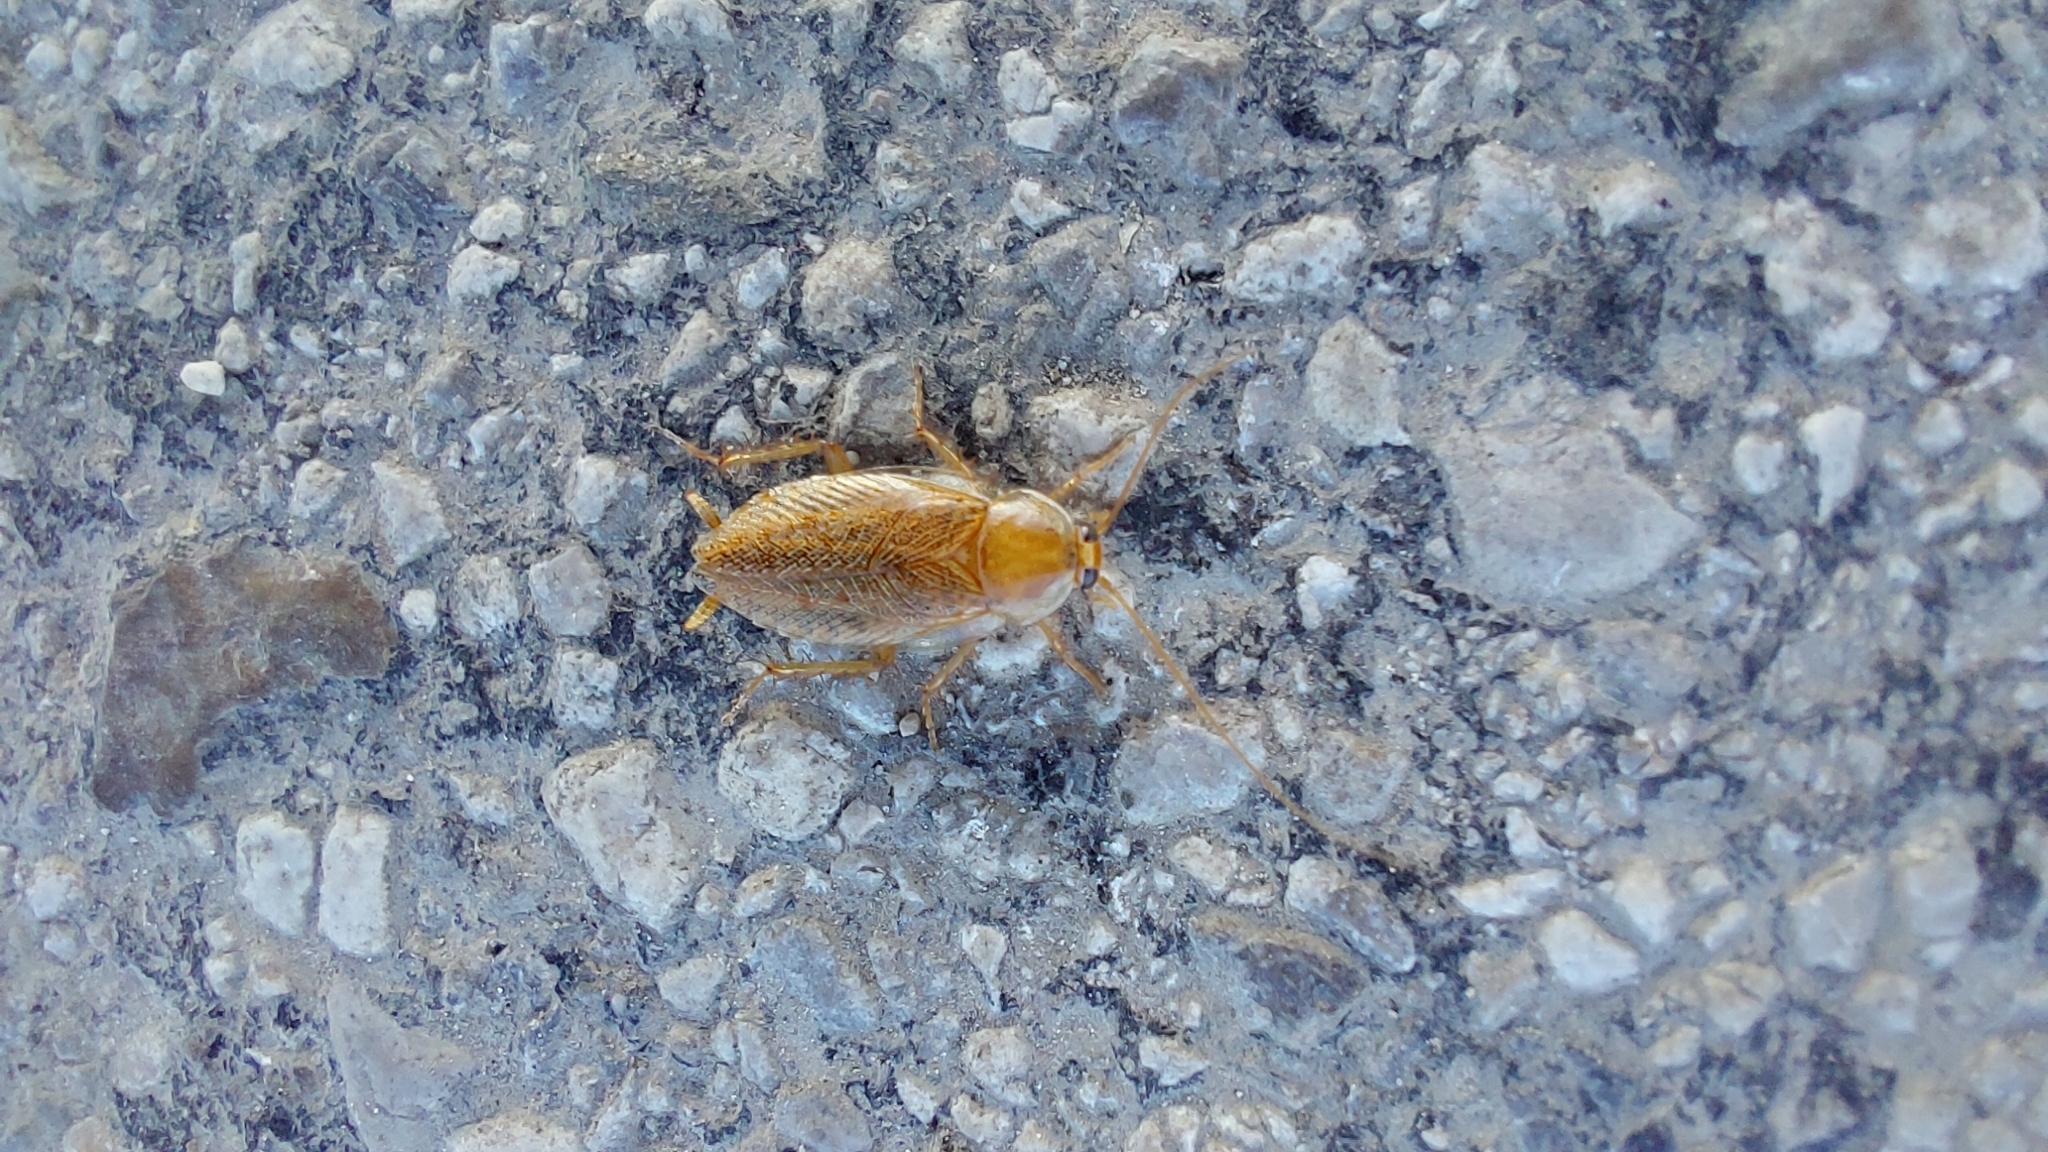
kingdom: Animalia
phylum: Arthropoda
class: Insecta
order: Blattodea
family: Ectobiidae
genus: Ectobius
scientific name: Ectobius vittiventris
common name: Garden cockroach
